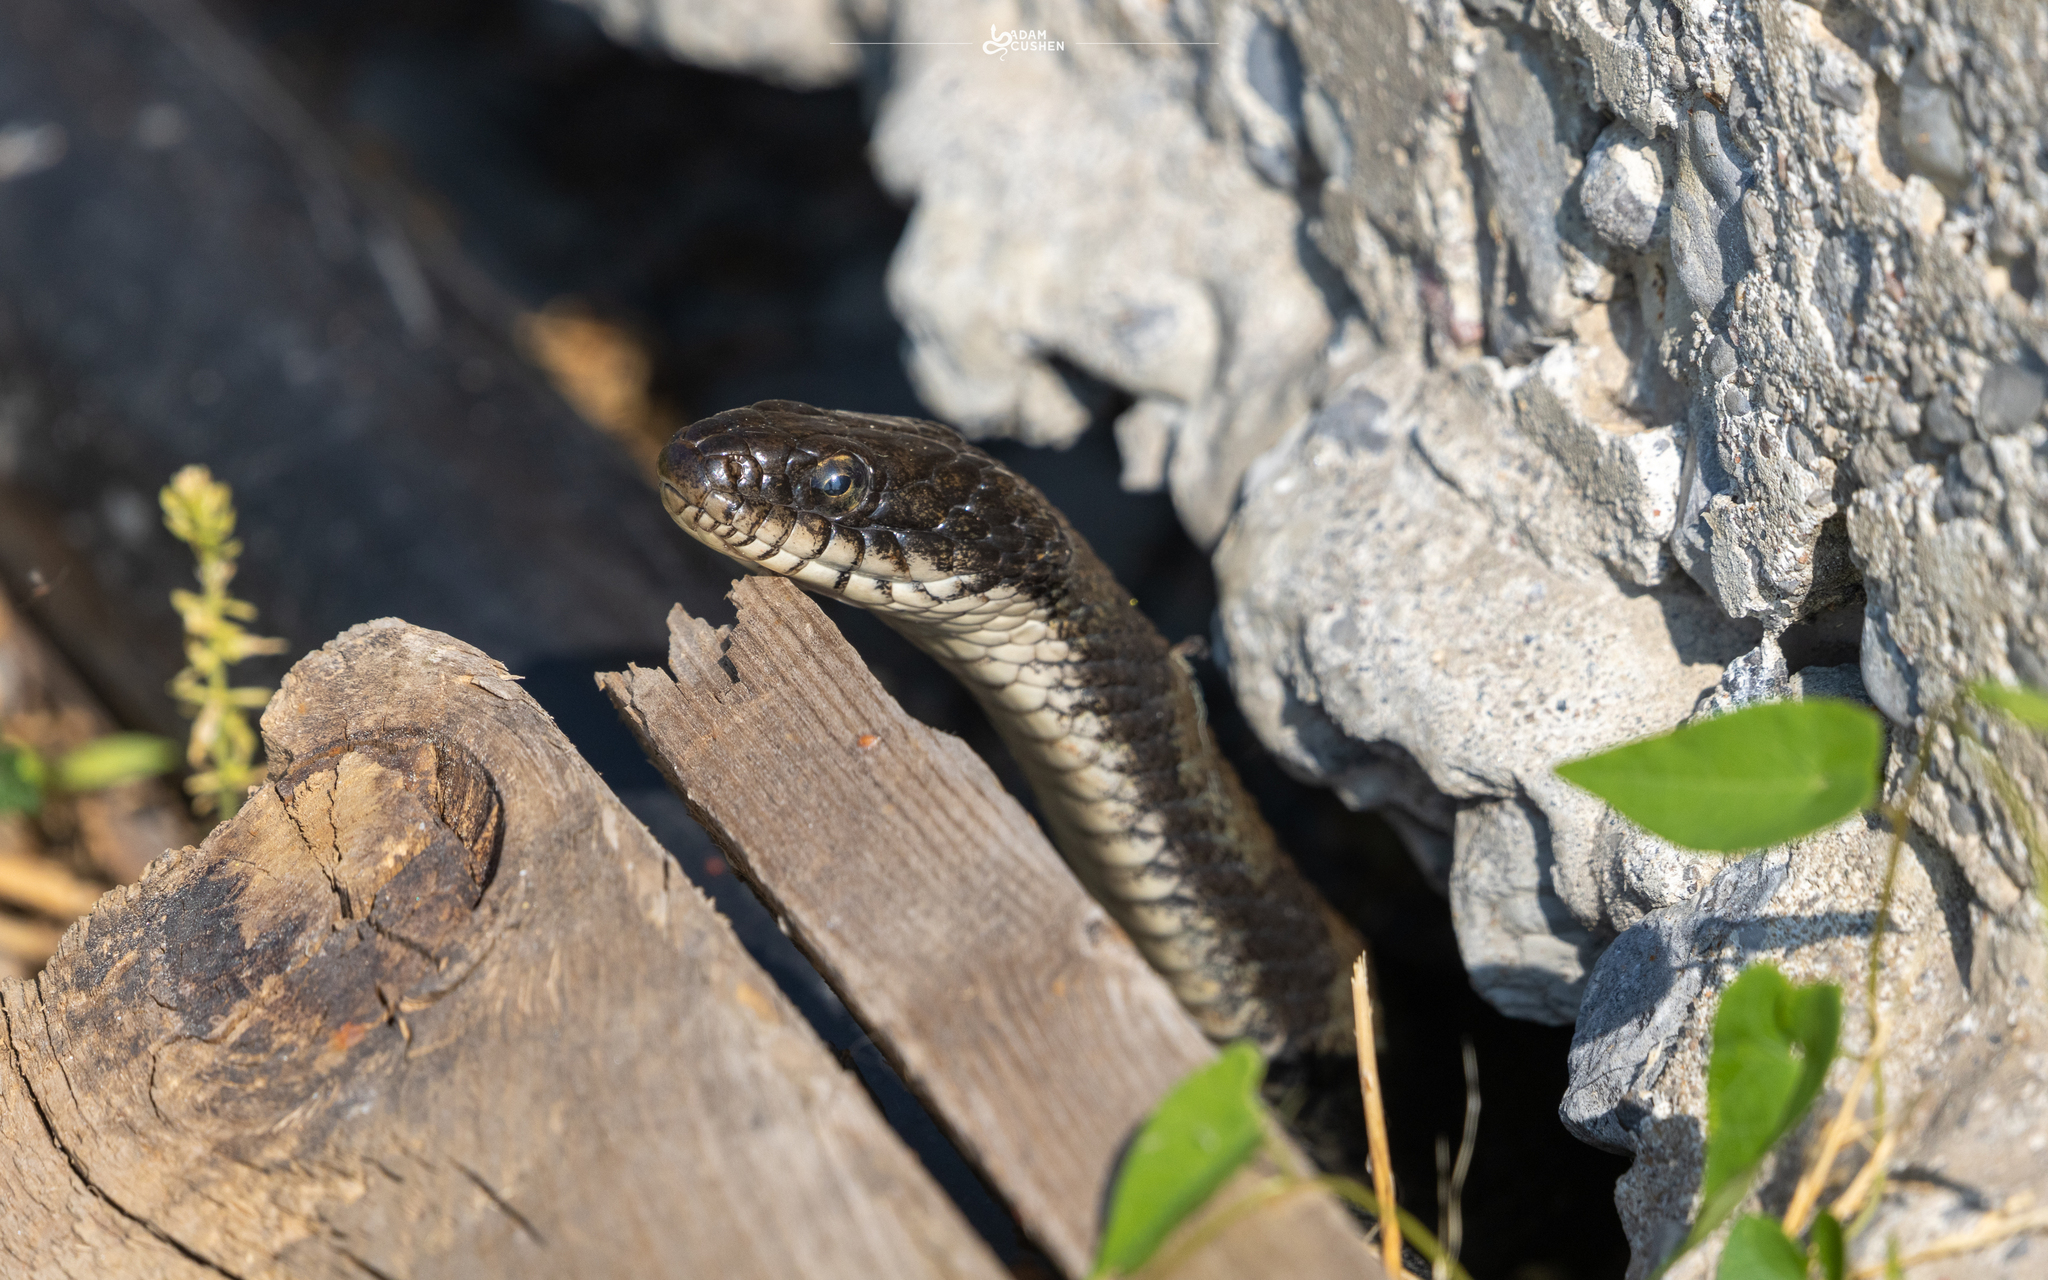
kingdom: Animalia
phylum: Chordata
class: Squamata
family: Colubridae
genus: Nerodia
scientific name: Nerodia sipedon
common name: Northern water snake
